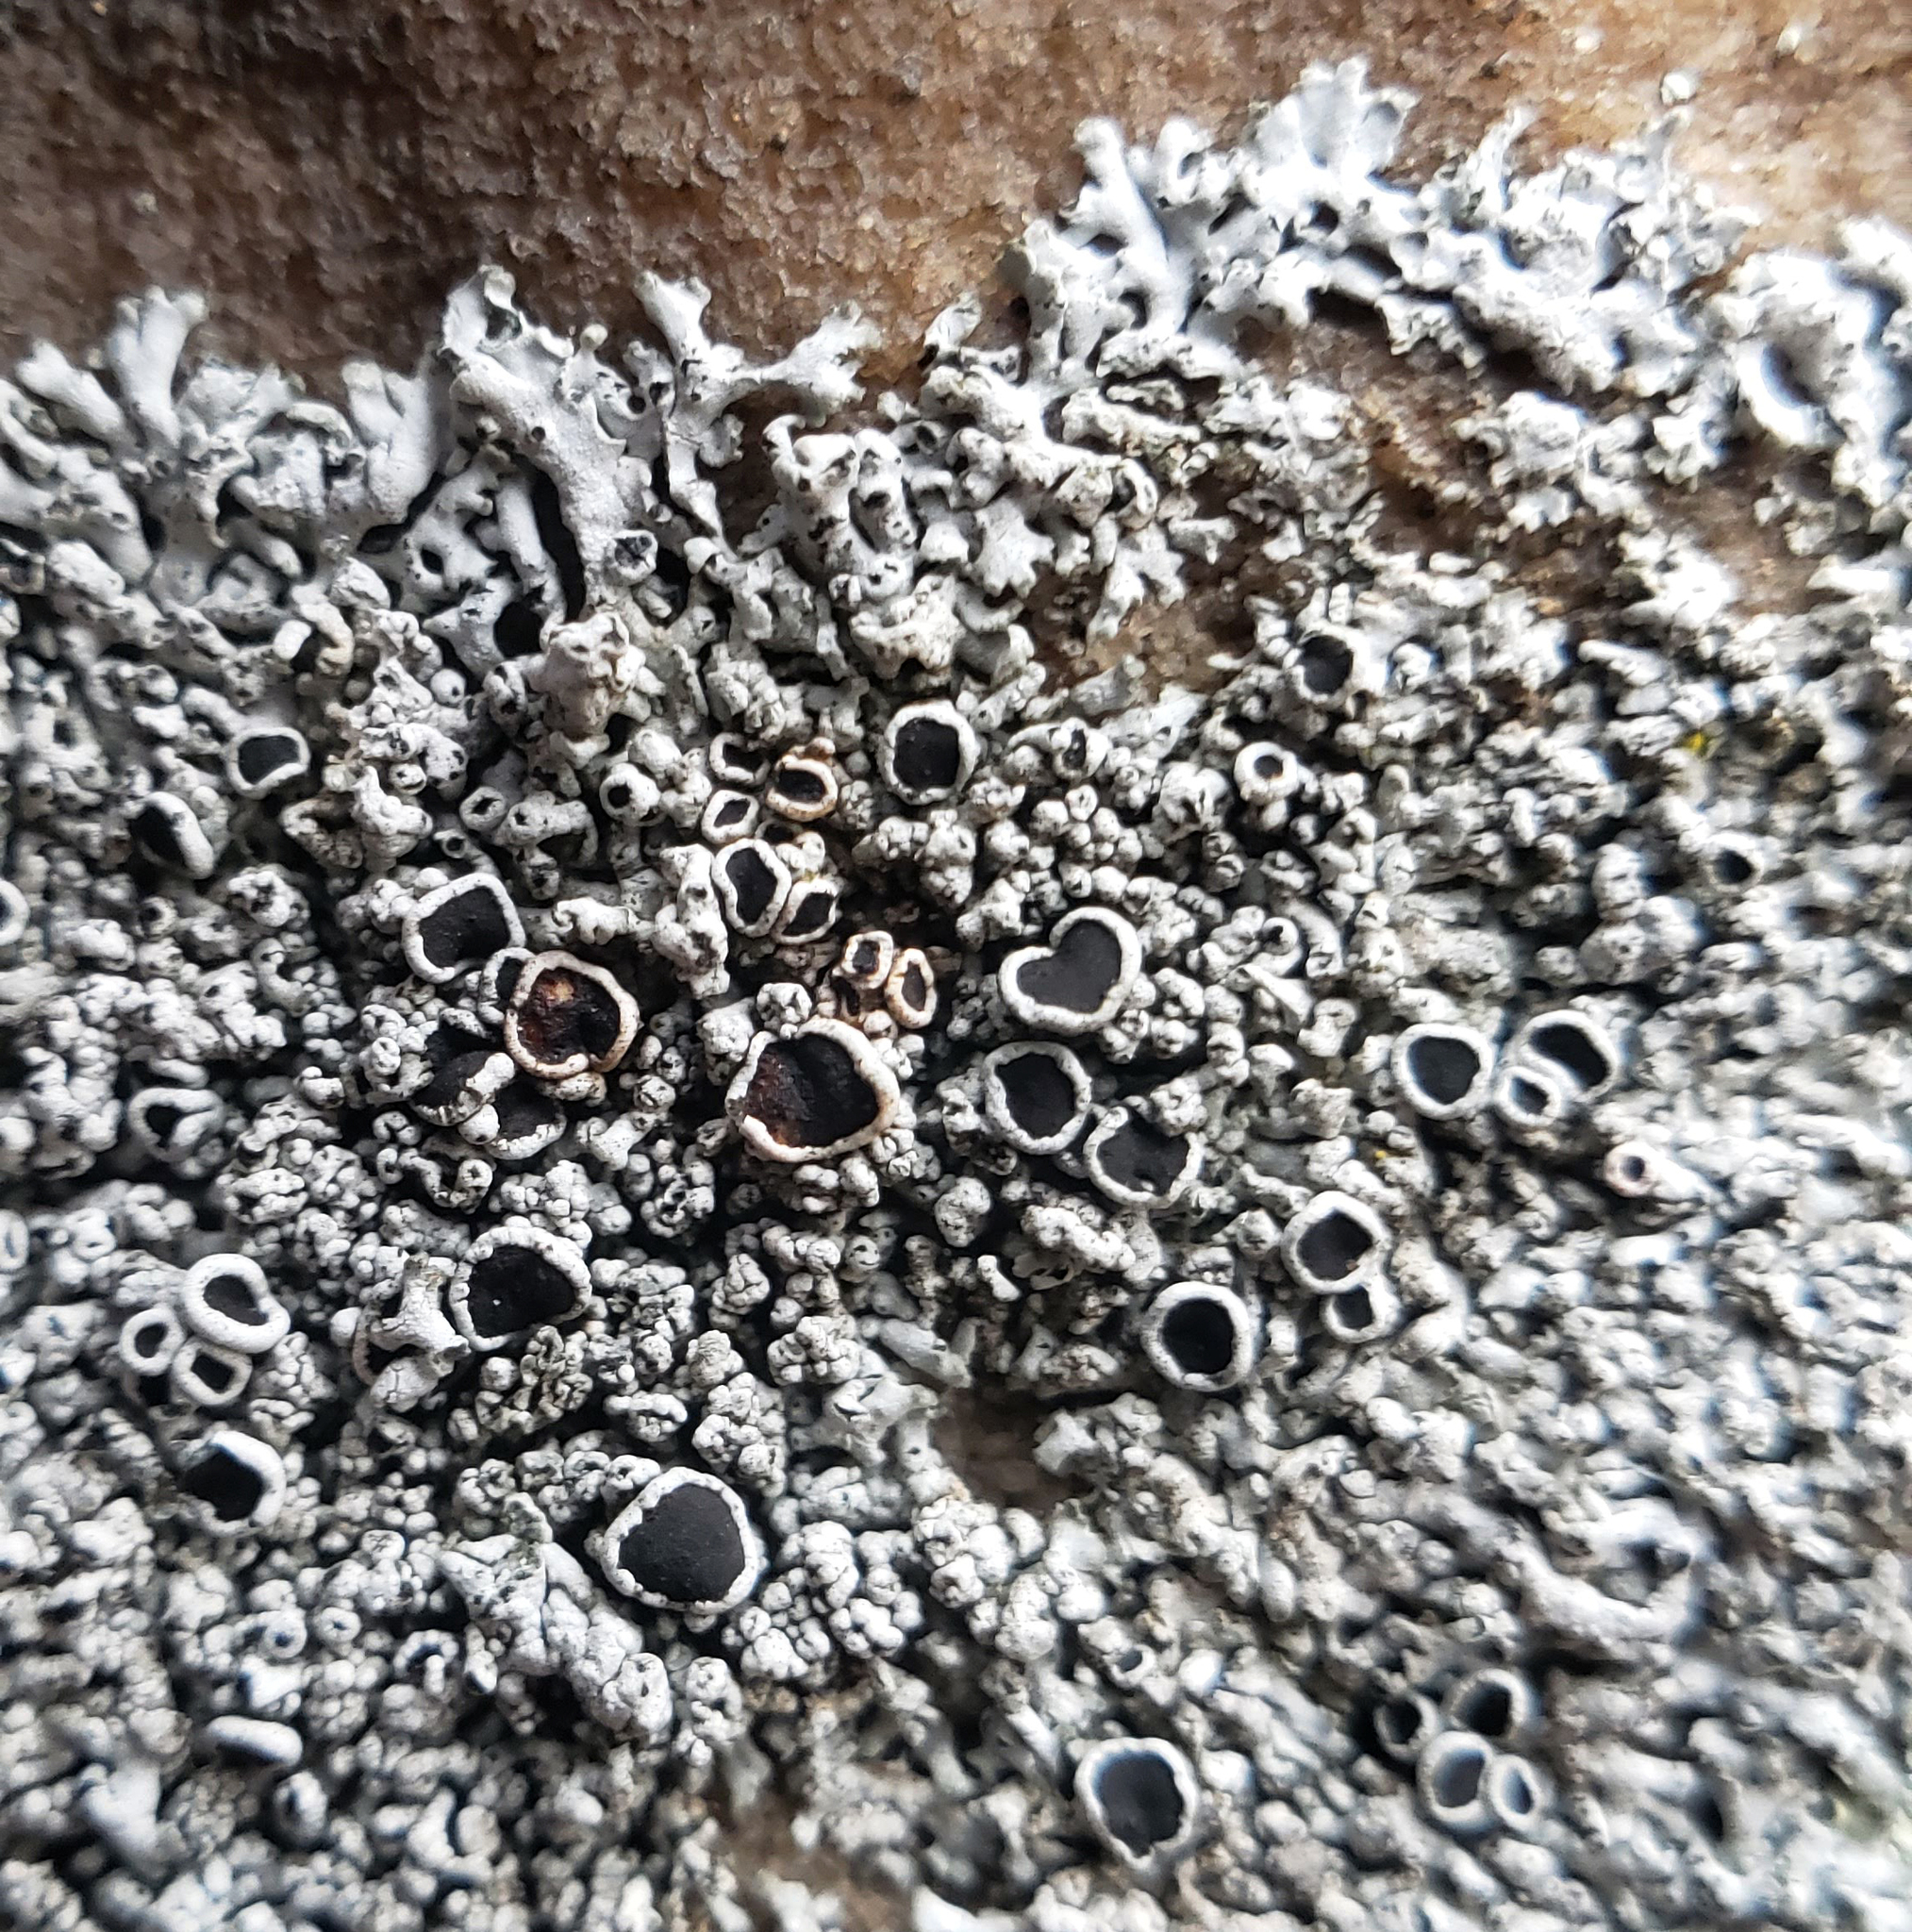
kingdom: Fungi
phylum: Ascomycota
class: Lecanoromycetes
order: Caliciales
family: Physciaceae
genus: Physcia
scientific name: Physcia phaea
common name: Black-eyed rosette lichen
